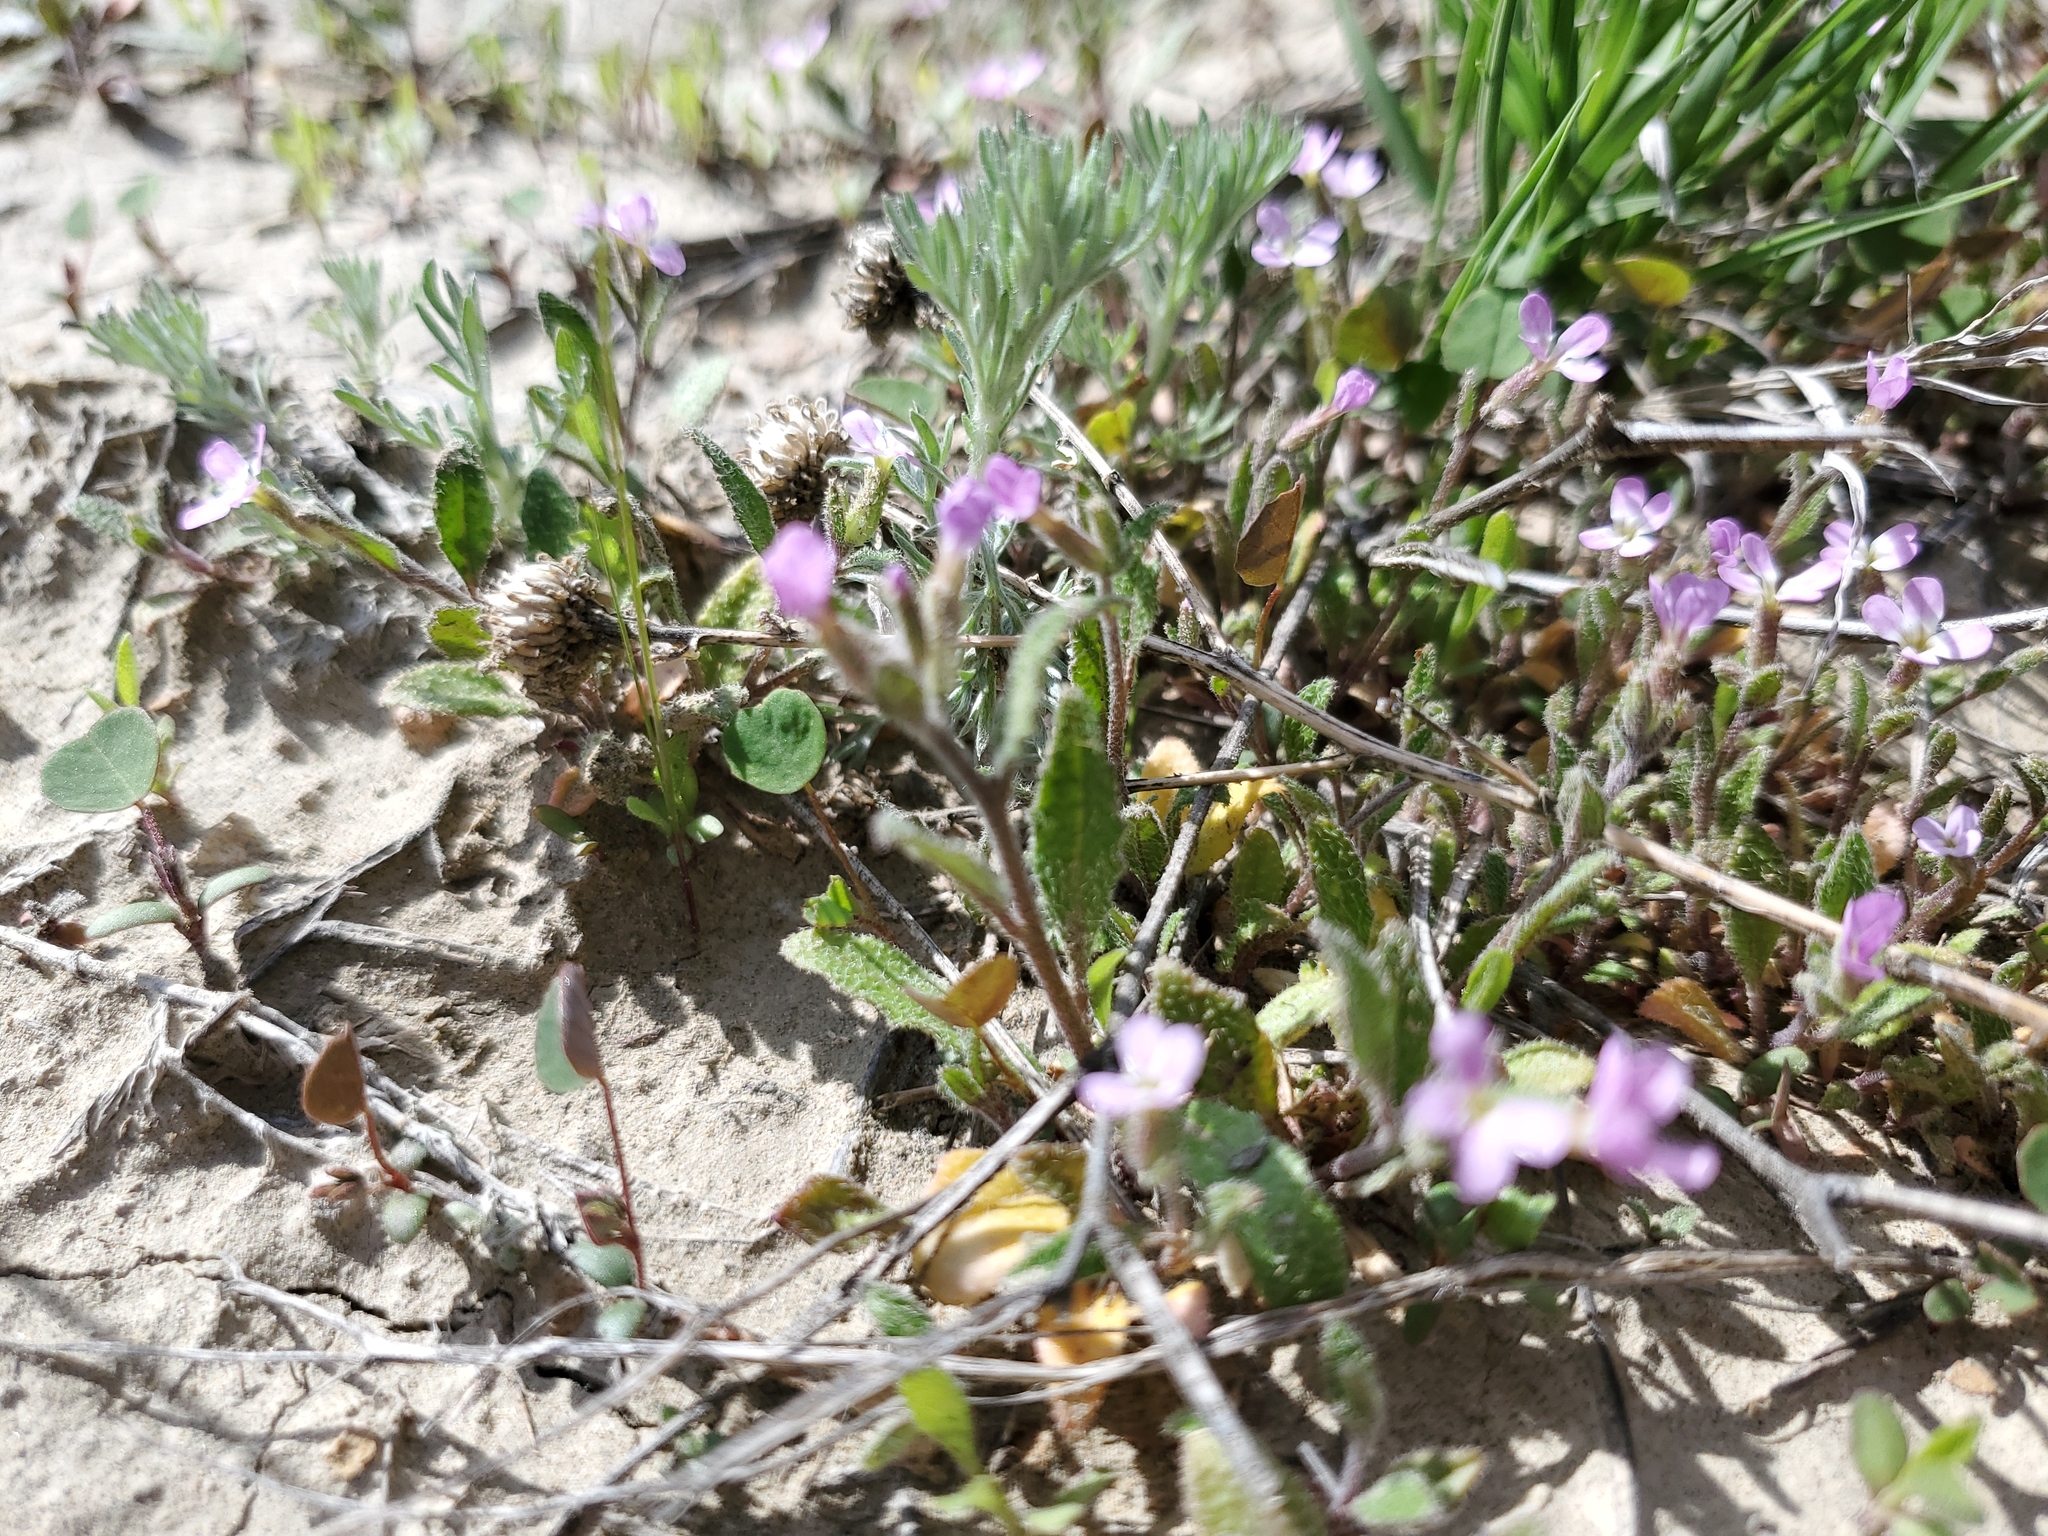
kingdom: Plantae
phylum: Tracheophyta
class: Magnoliopsida
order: Brassicales
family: Brassicaceae
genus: Strigosella
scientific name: Strigosella africana
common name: African mustard
